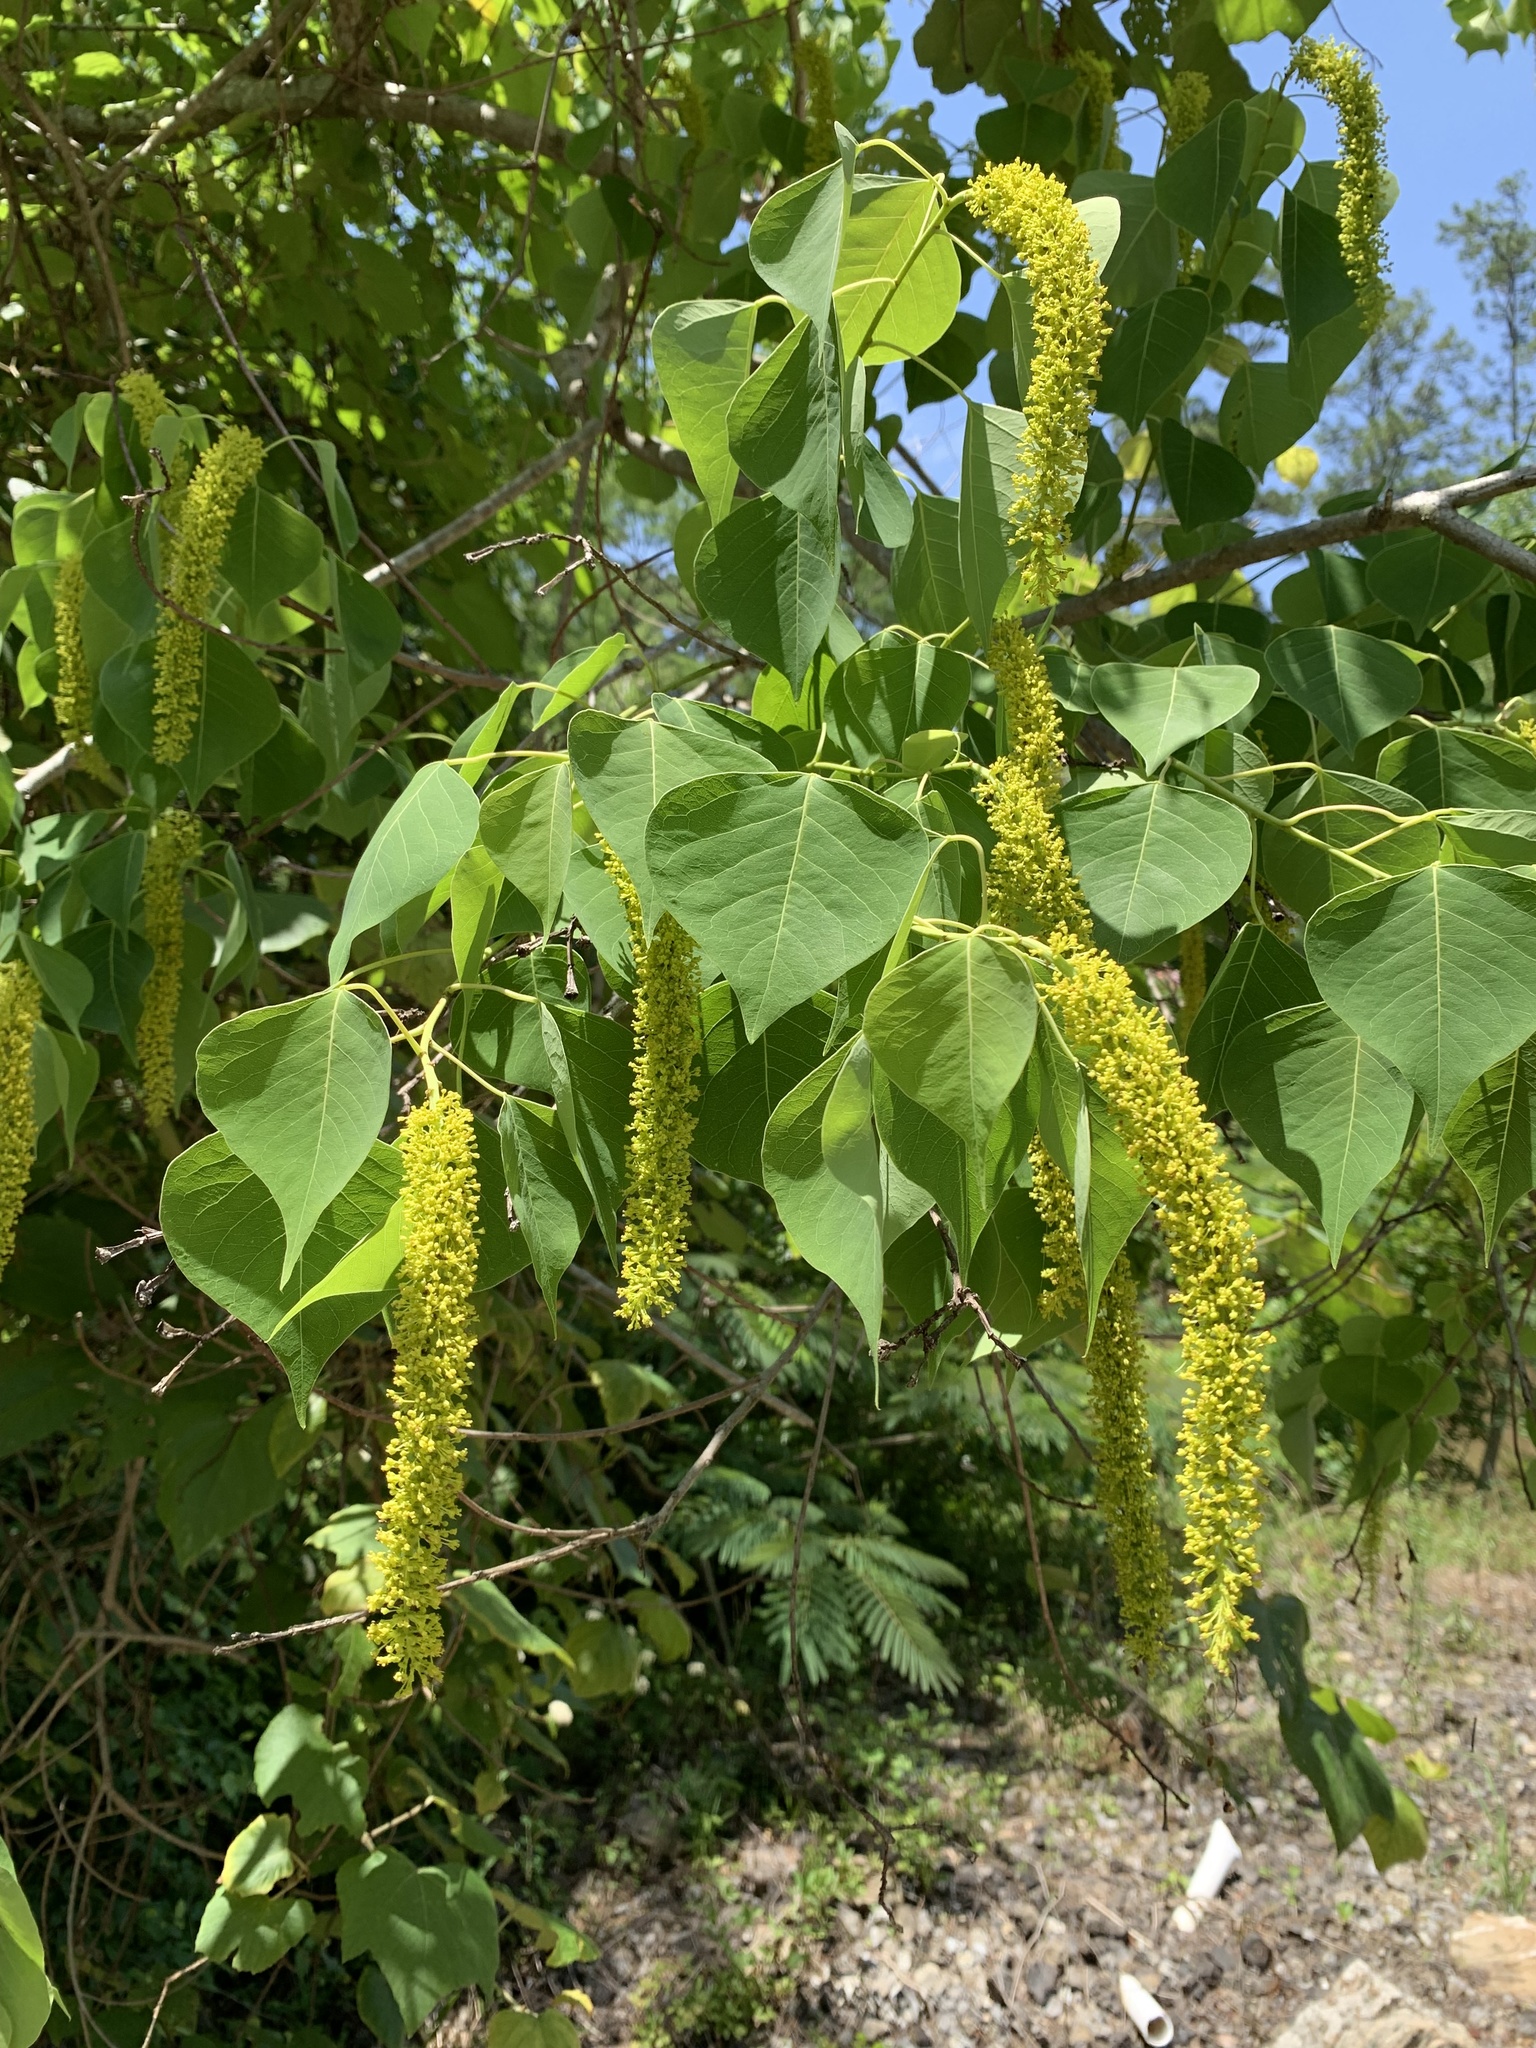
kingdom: Plantae
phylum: Tracheophyta
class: Magnoliopsida
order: Malpighiales
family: Euphorbiaceae
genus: Triadica
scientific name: Triadica sebifera
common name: Chinese tallow
